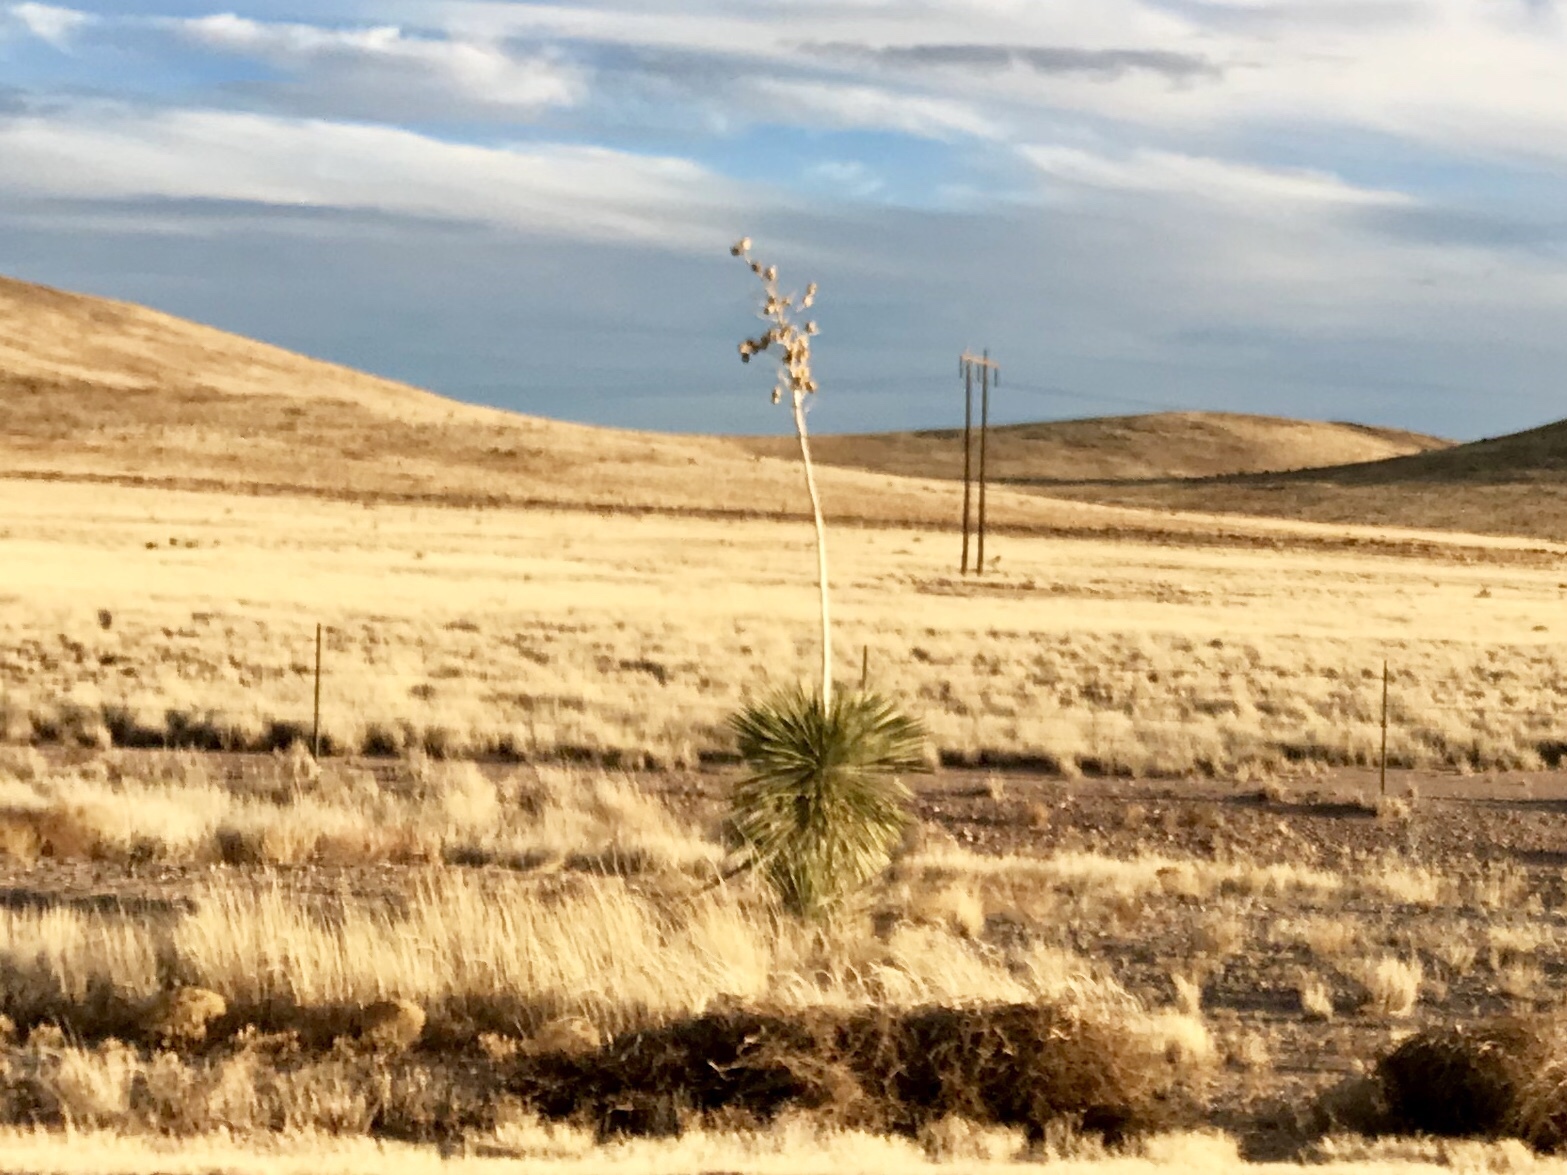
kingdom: Plantae
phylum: Tracheophyta
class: Liliopsida
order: Asparagales
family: Asparagaceae
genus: Yucca
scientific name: Yucca elata
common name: Palmella
